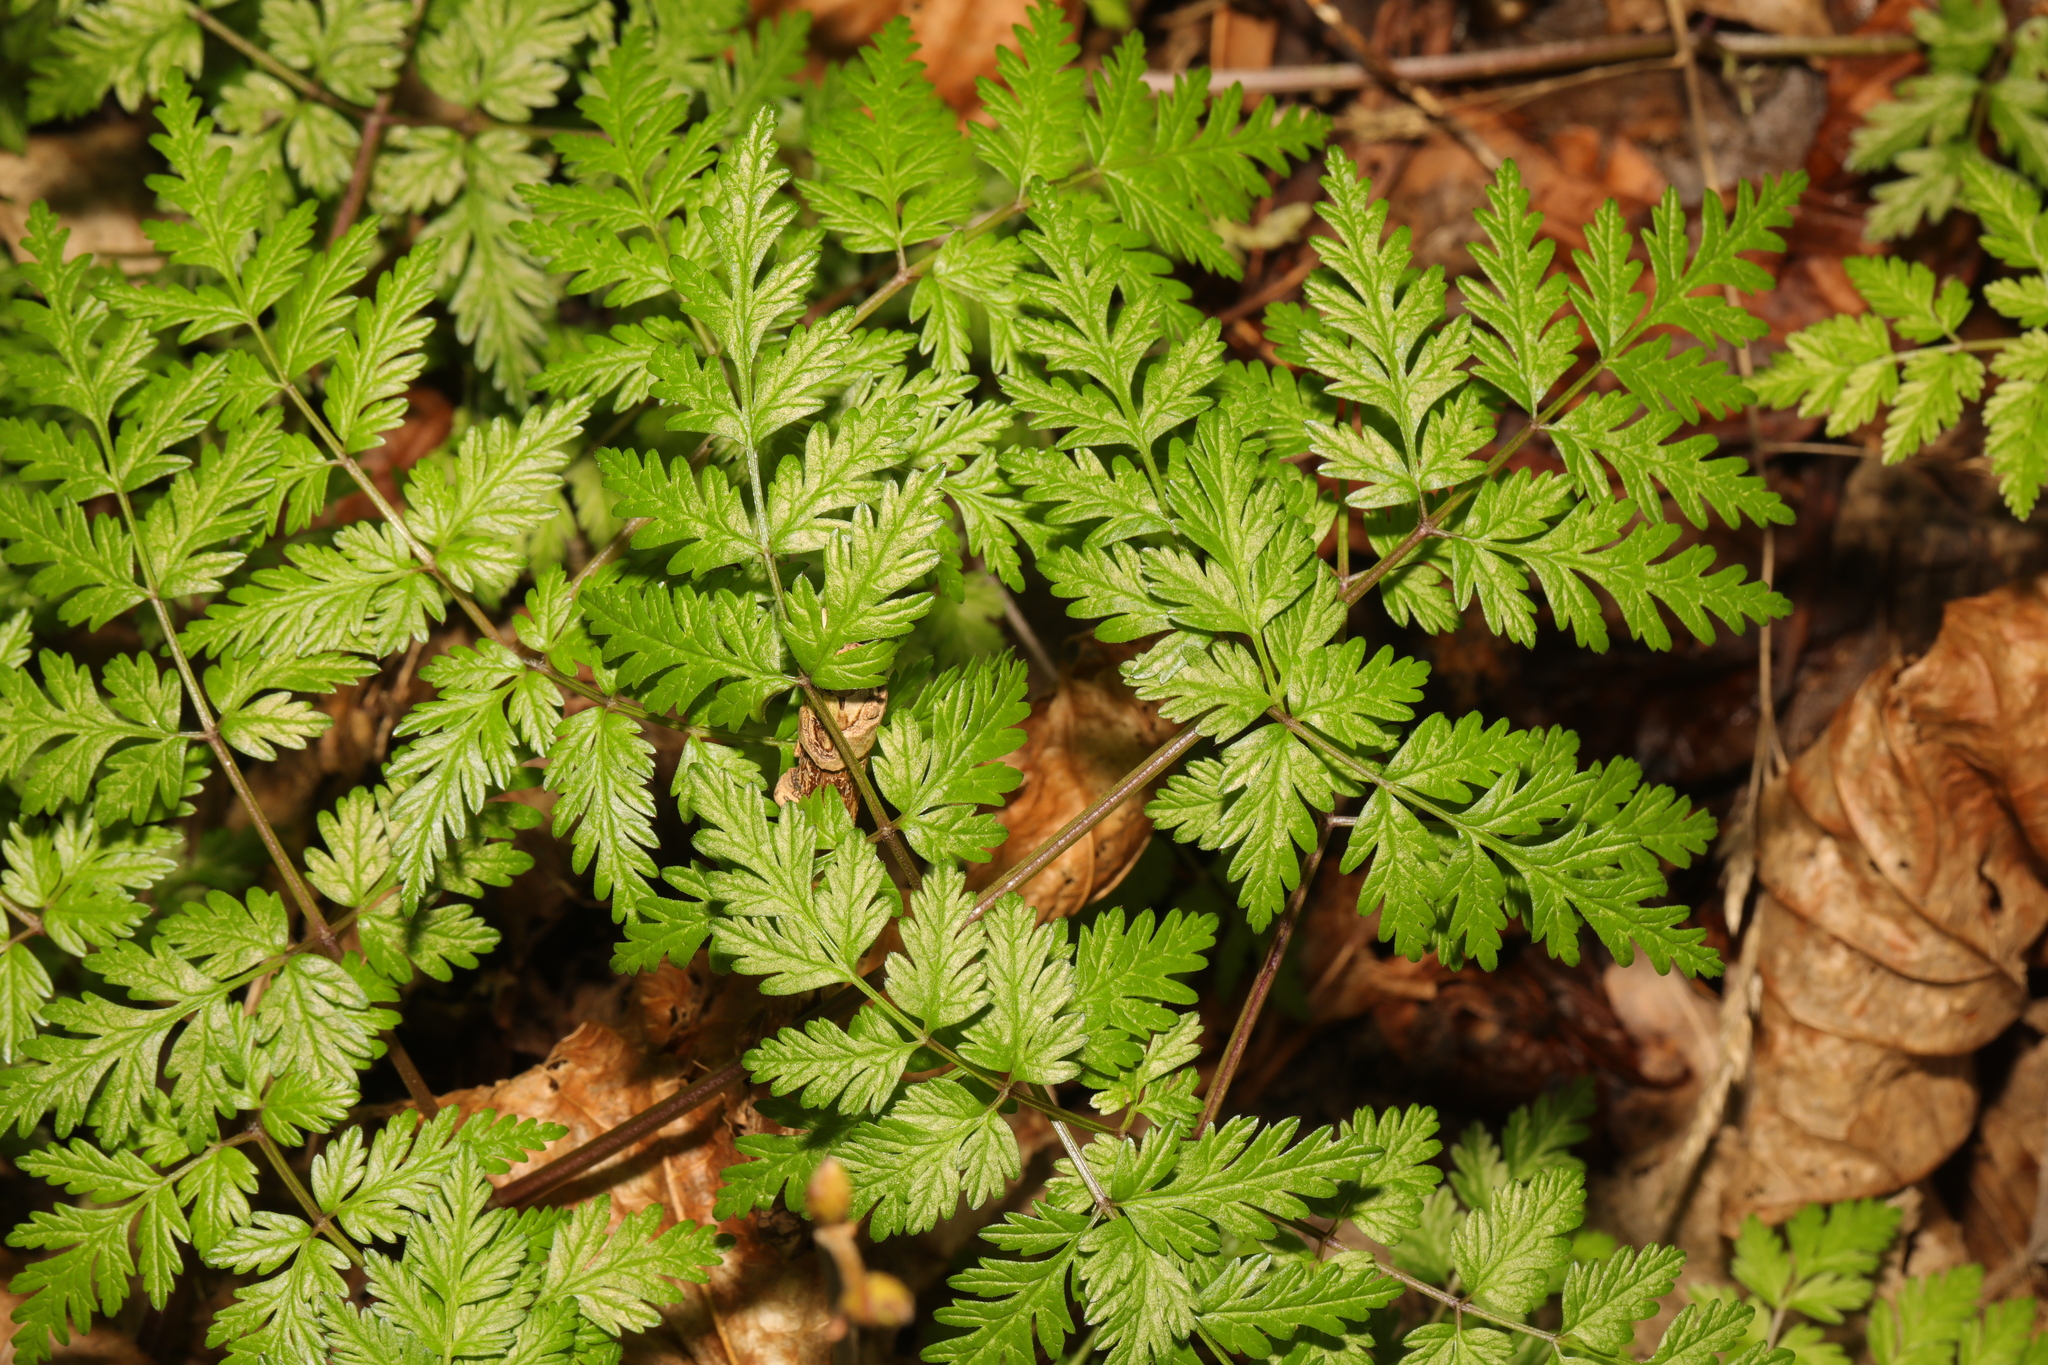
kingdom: Plantae
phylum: Tracheophyta
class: Magnoliopsida
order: Apiales
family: Apiaceae
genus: Anthriscus
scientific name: Anthriscus sylvestris
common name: Cow parsley
